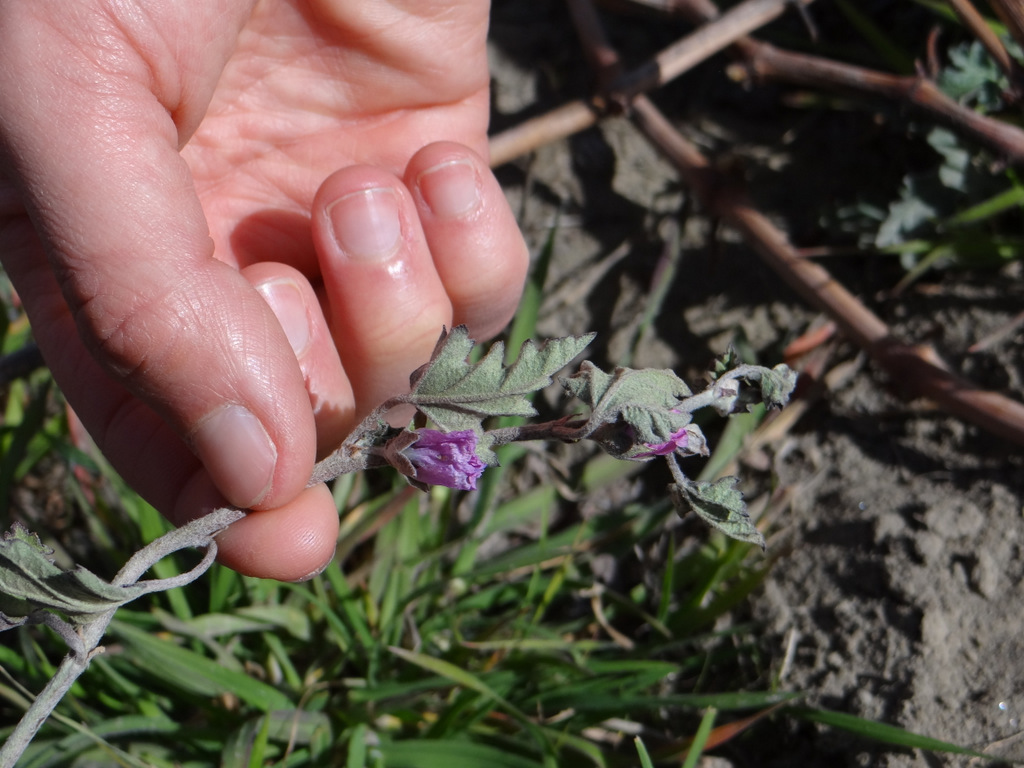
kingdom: Plantae
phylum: Tracheophyta
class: Magnoliopsida
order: Malvales
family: Malvaceae
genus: Sphaeralcea
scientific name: Sphaeralcea mendocina
